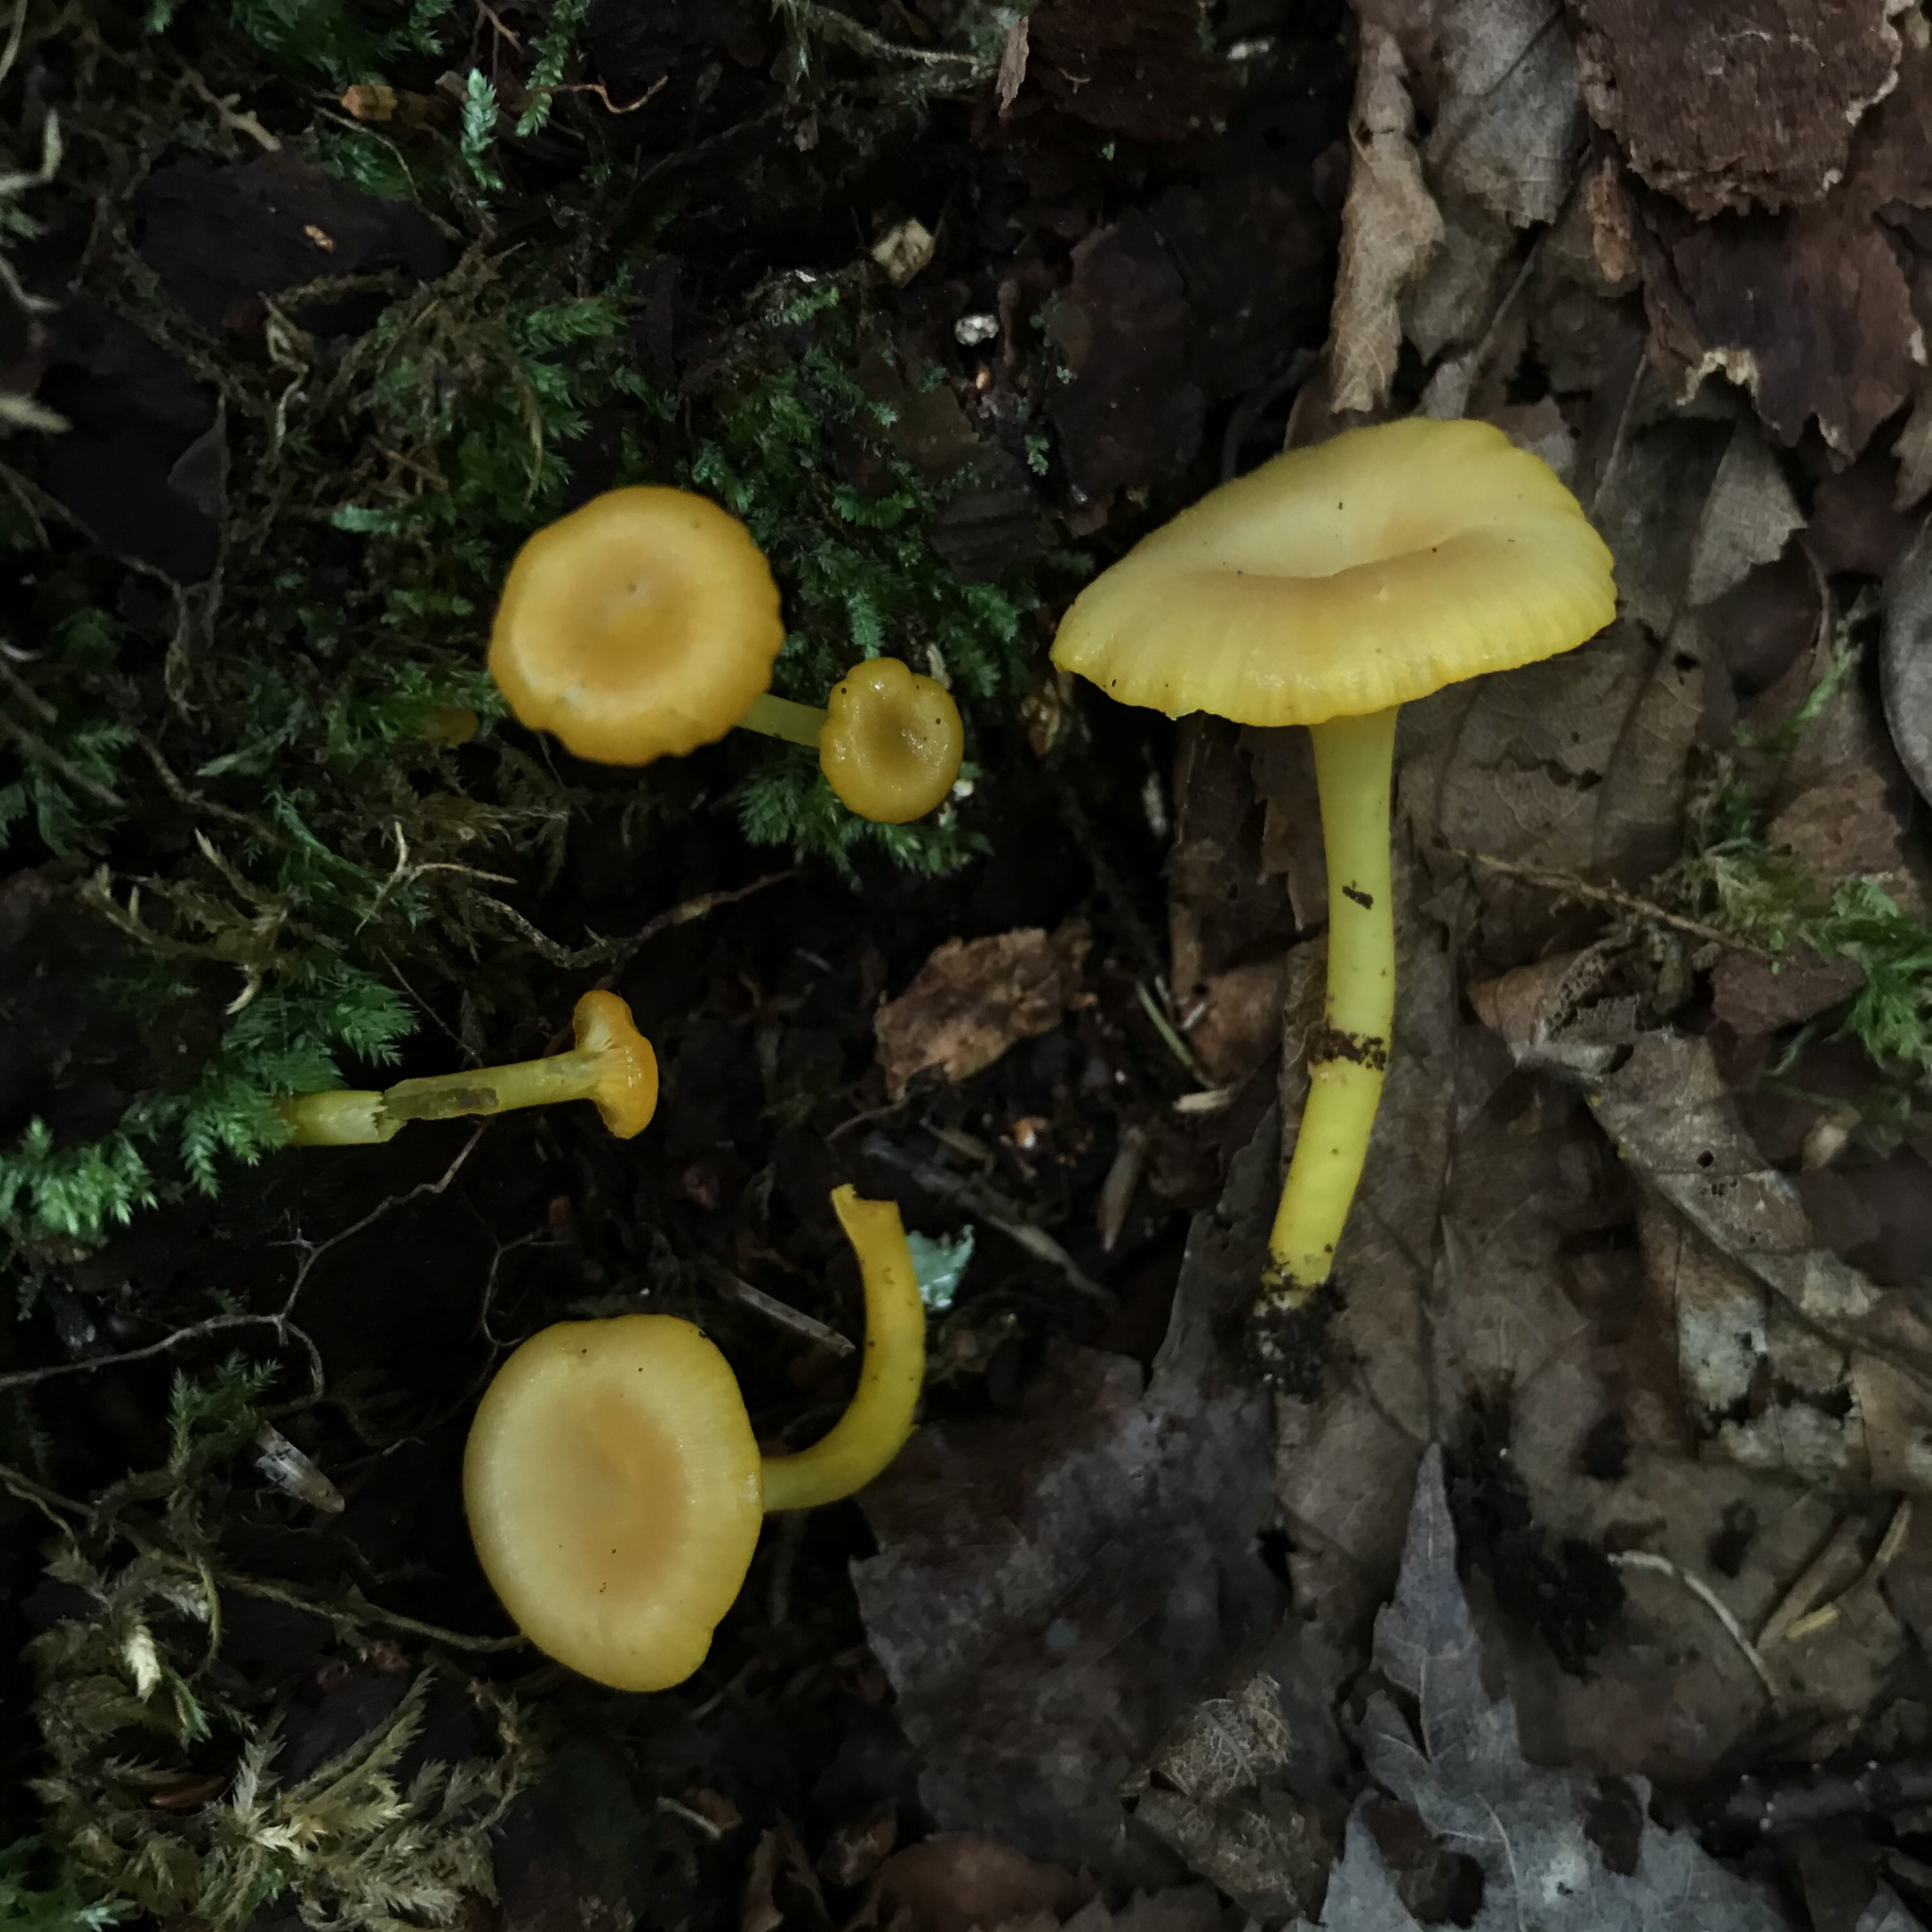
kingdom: Fungi
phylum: Basidiomycota
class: Agaricomycetes
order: Agaricales
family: Hygrophoraceae
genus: Gloioxanthomyces
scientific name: Gloioxanthomyces nitidus
